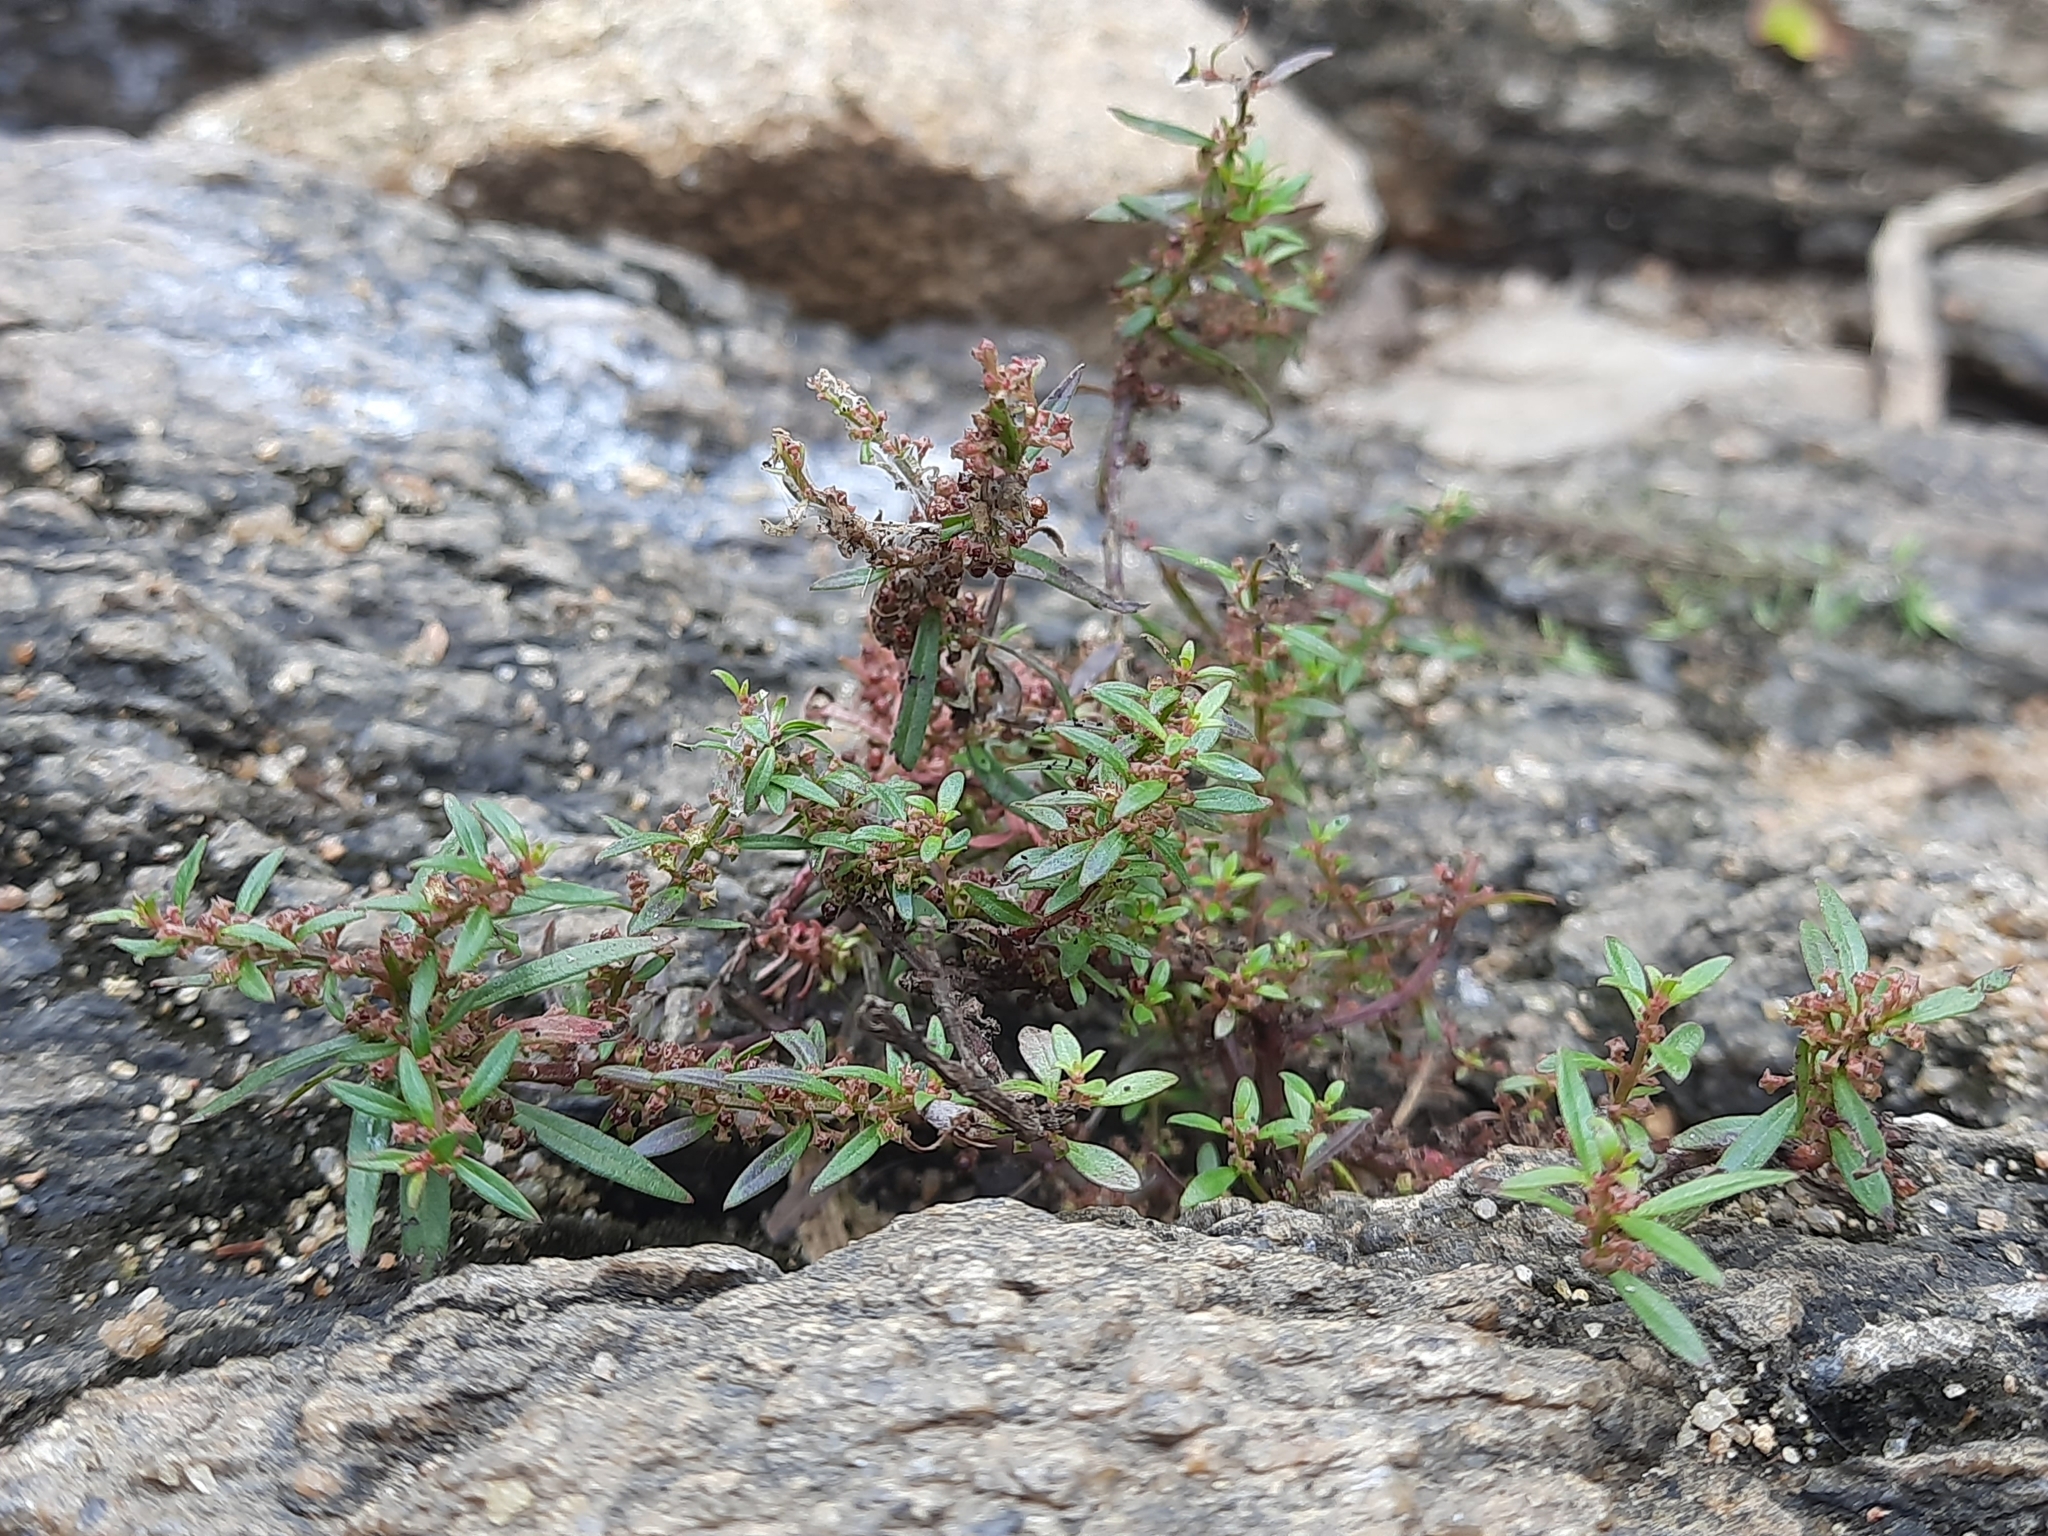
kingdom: Plantae
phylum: Tracheophyta
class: Magnoliopsida
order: Myrtales
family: Lythraceae
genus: Ammannia
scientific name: Ammannia baccifera
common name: Blistering ammania
